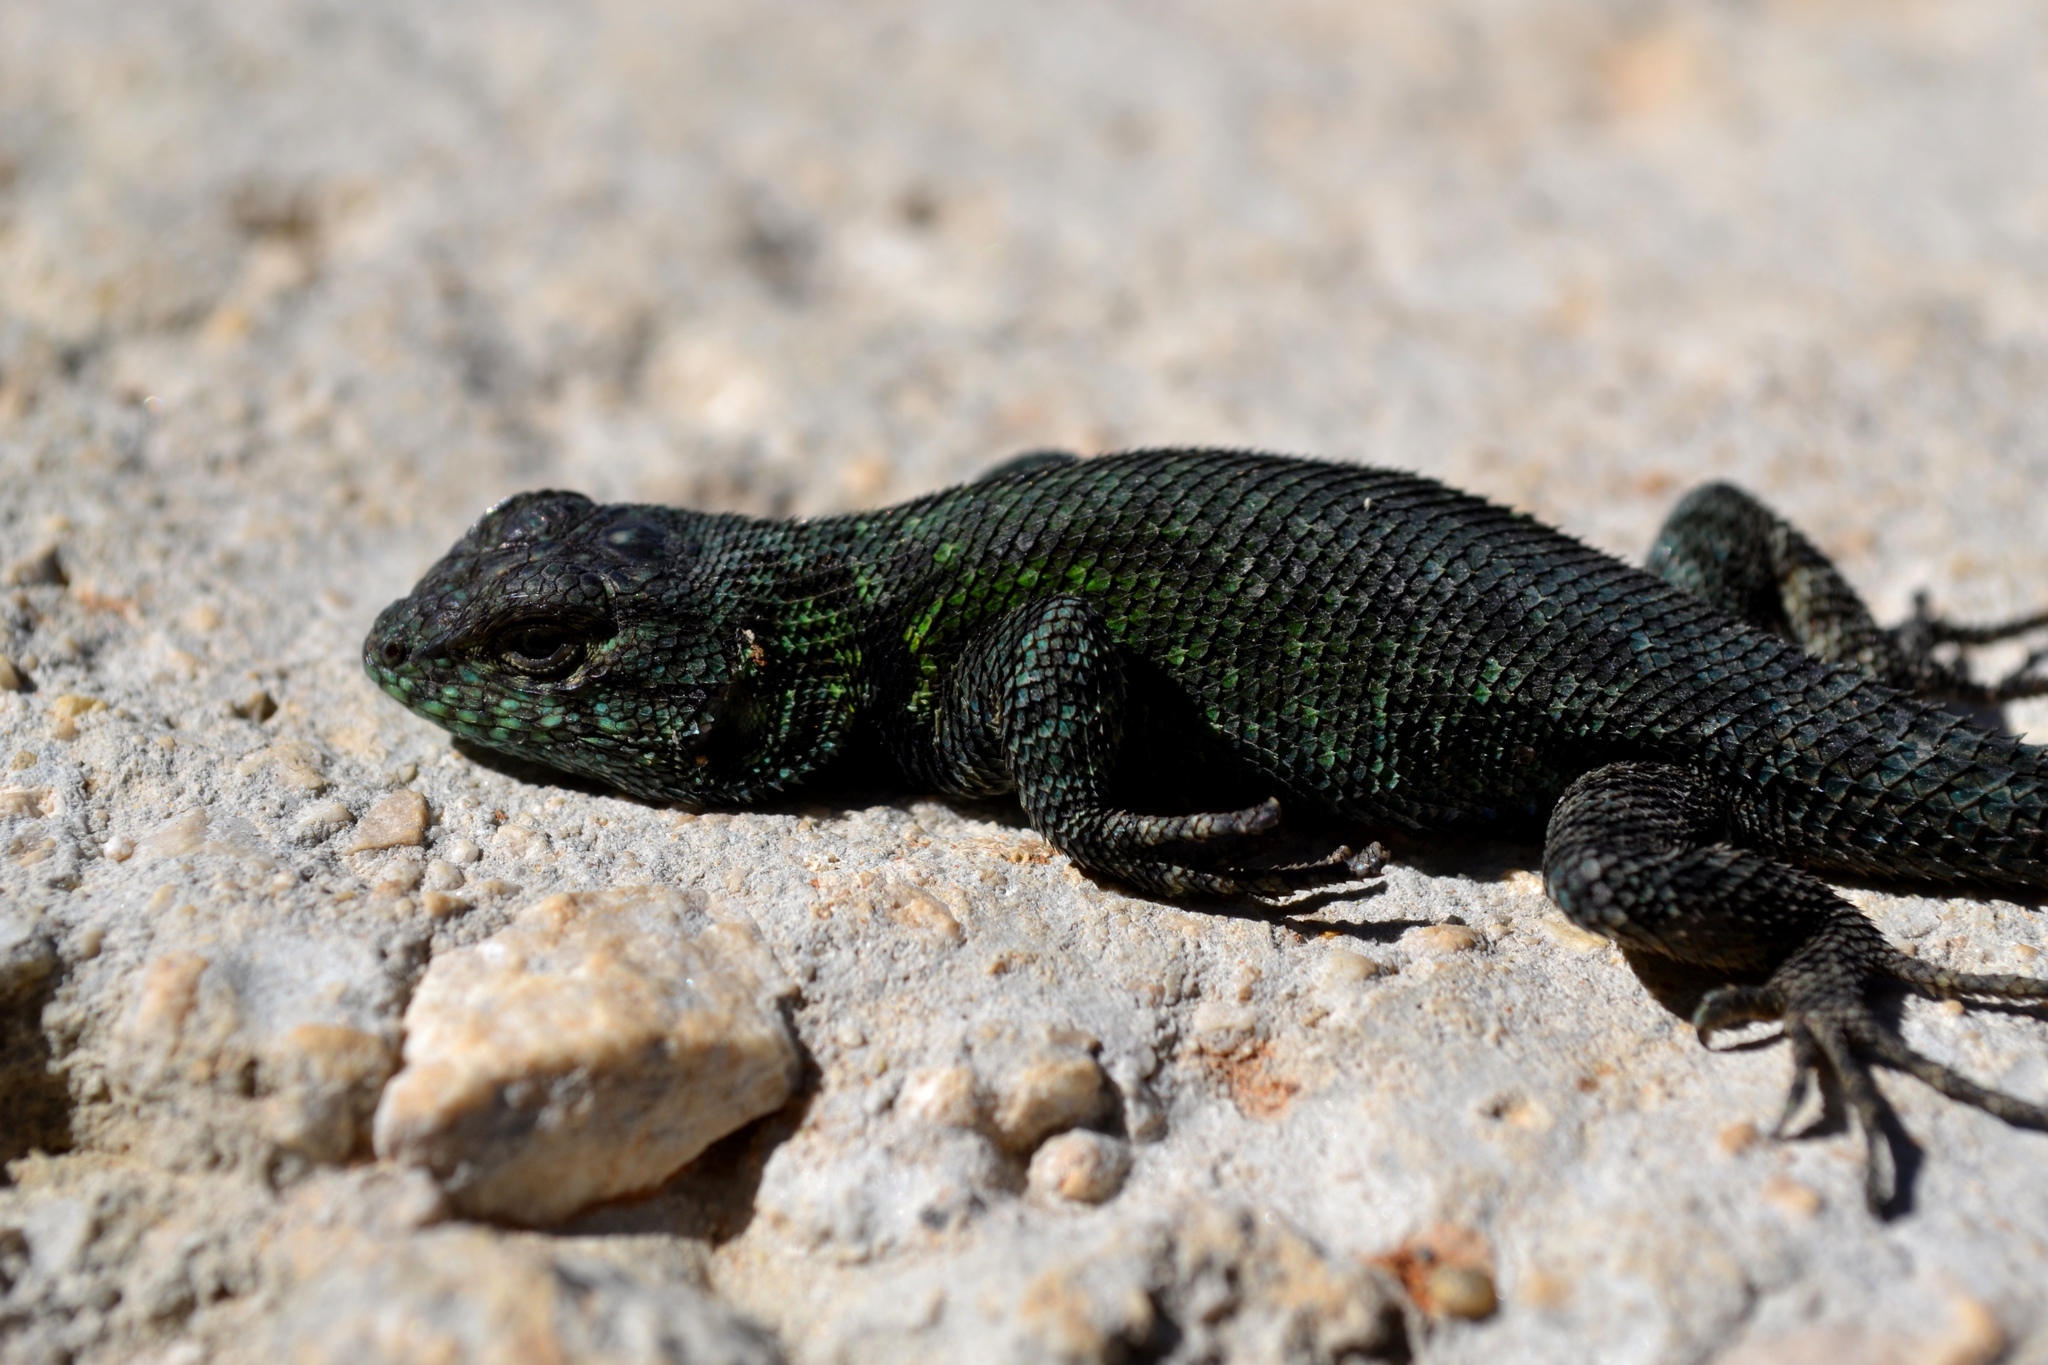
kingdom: Animalia
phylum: Chordata
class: Squamata
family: Phrynosomatidae
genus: Sceloporus
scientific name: Sceloporus taeniocnemis
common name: Guatemalan emerald spiny lizard
